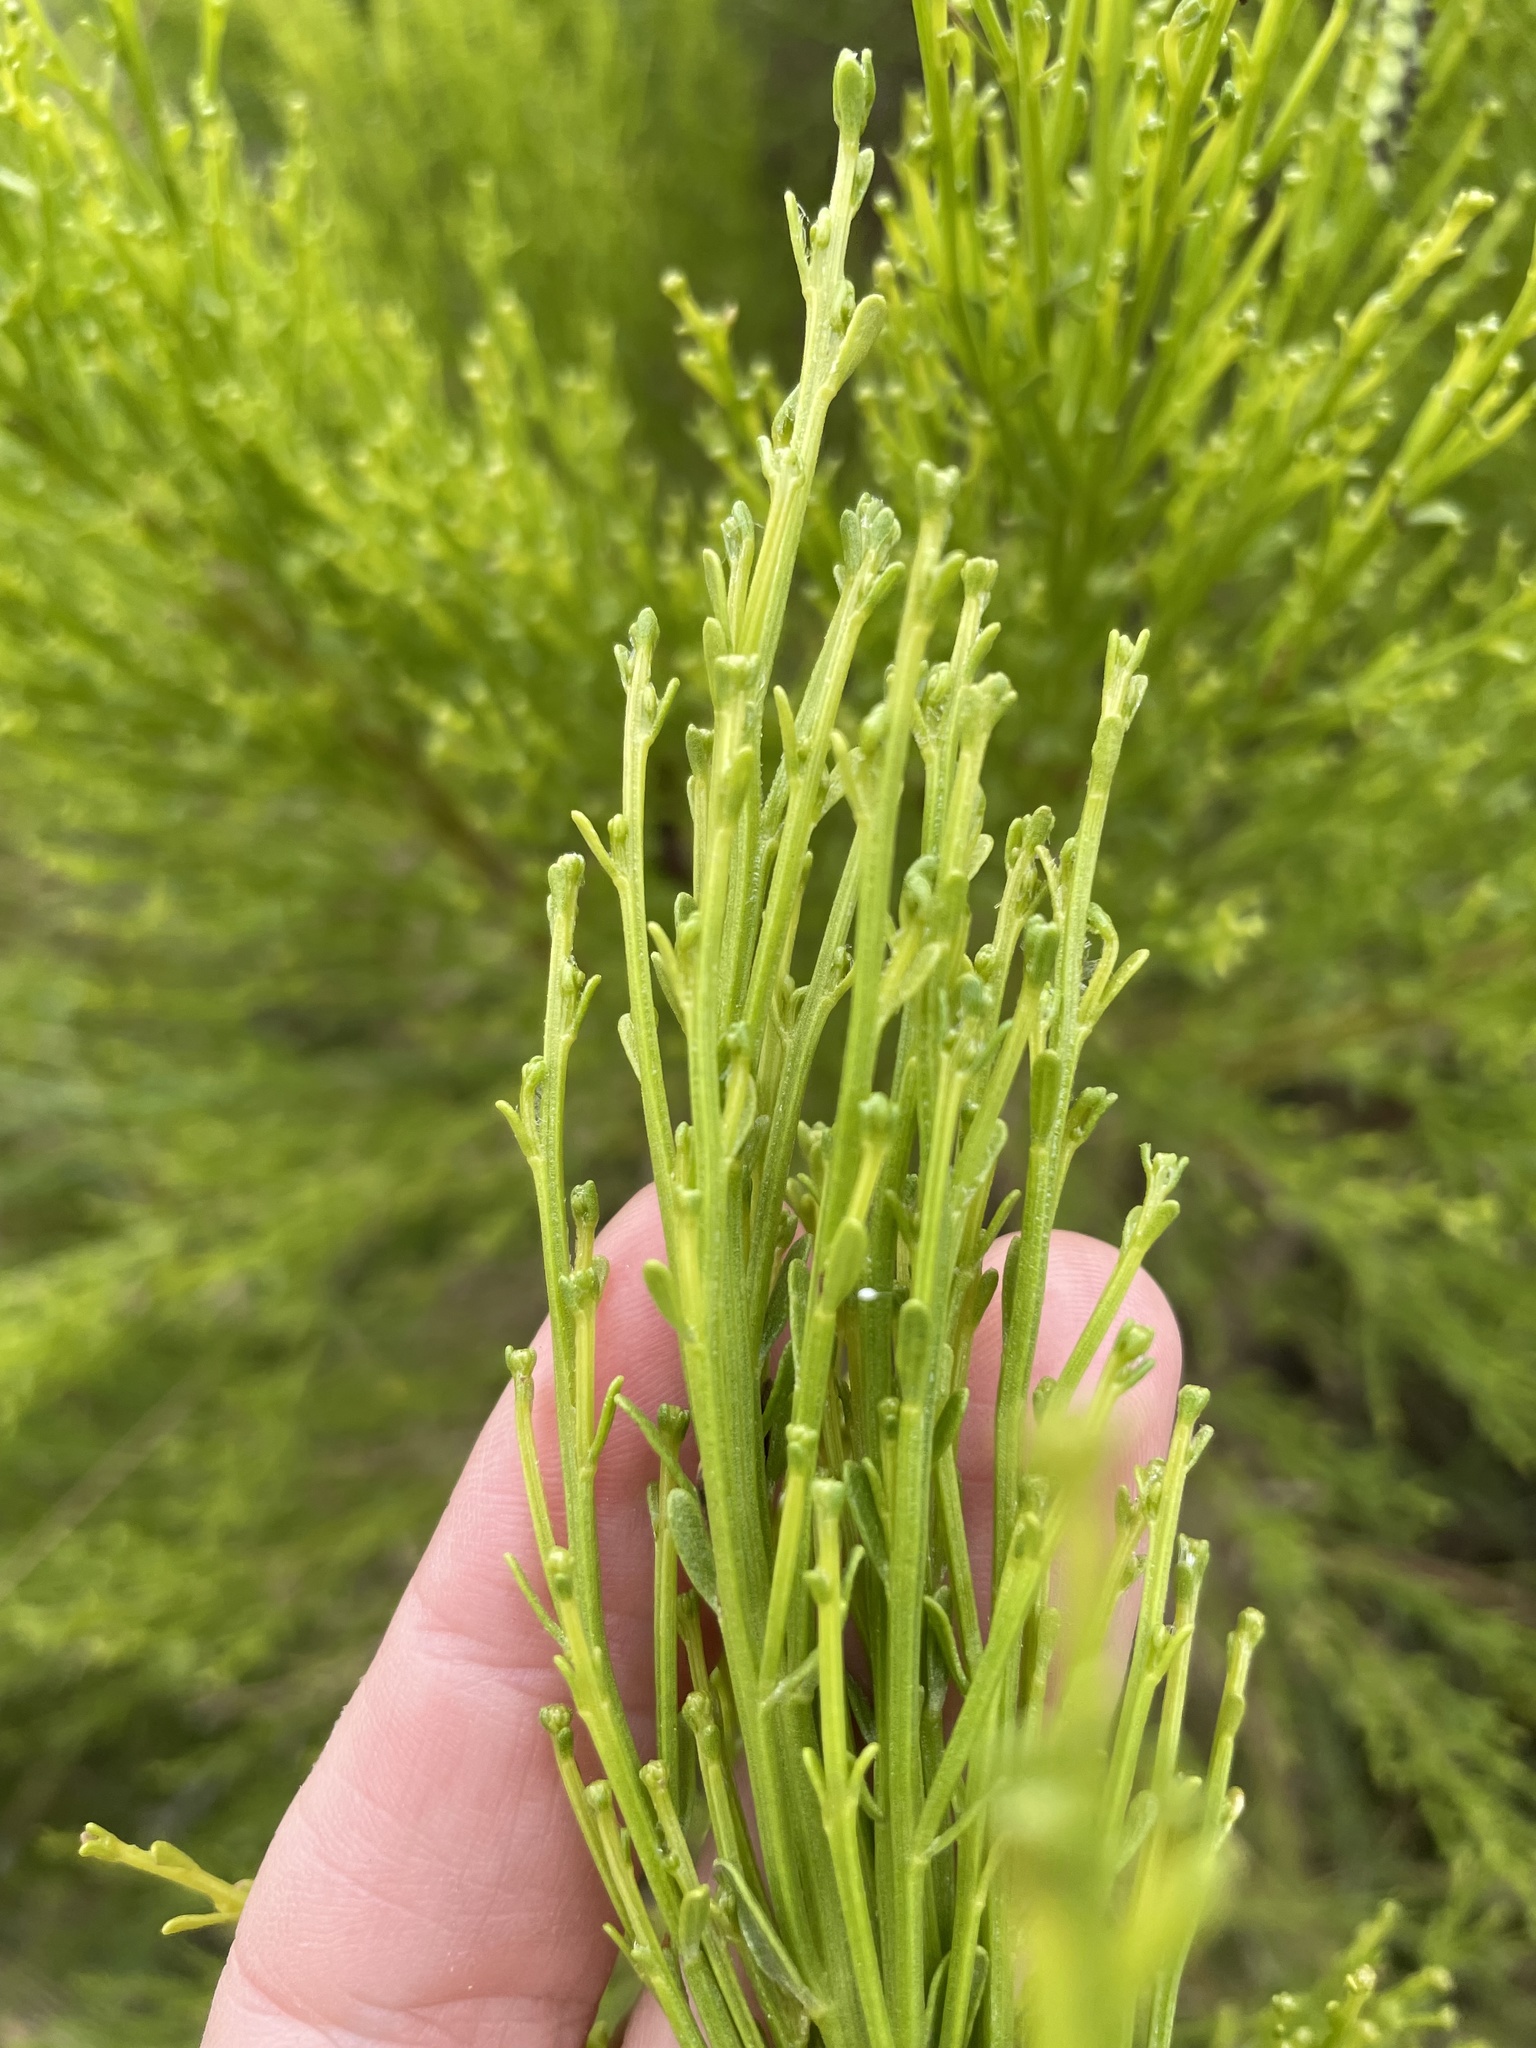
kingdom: Plantae
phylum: Tracheophyta
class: Magnoliopsida
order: Asterales
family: Asteraceae
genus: Baccharis
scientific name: Baccharis sarothroides
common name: Desert-broom
